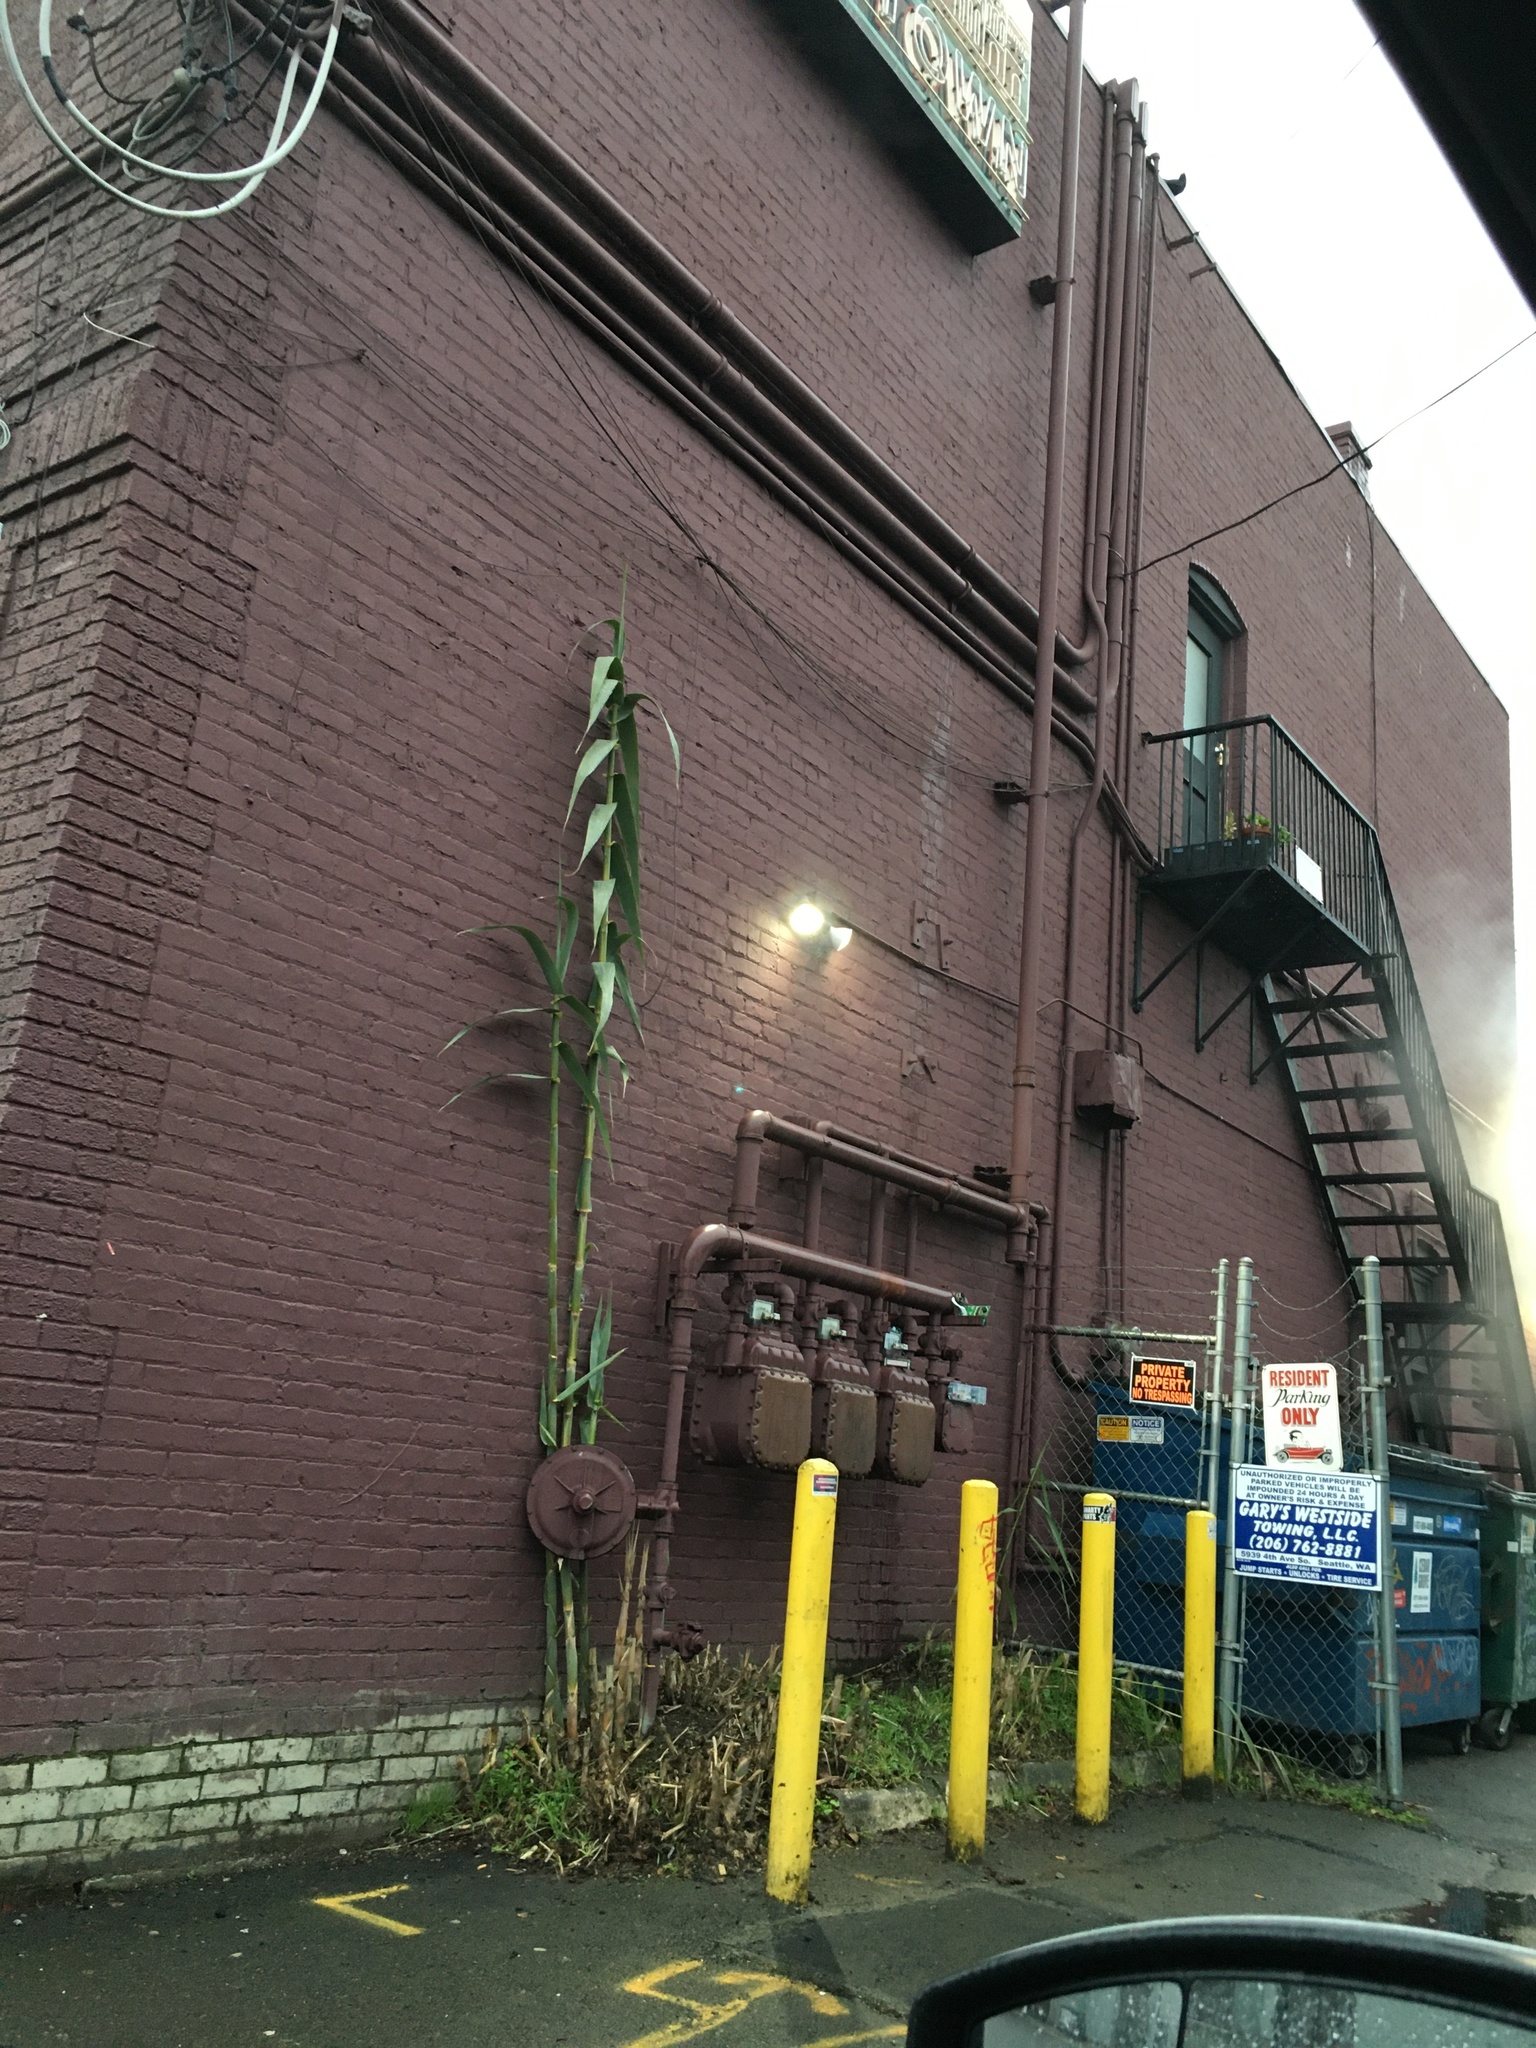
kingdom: Plantae
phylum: Tracheophyta
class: Liliopsida
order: Poales
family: Poaceae
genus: Arundo
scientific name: Arundo donax
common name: Giant reed
